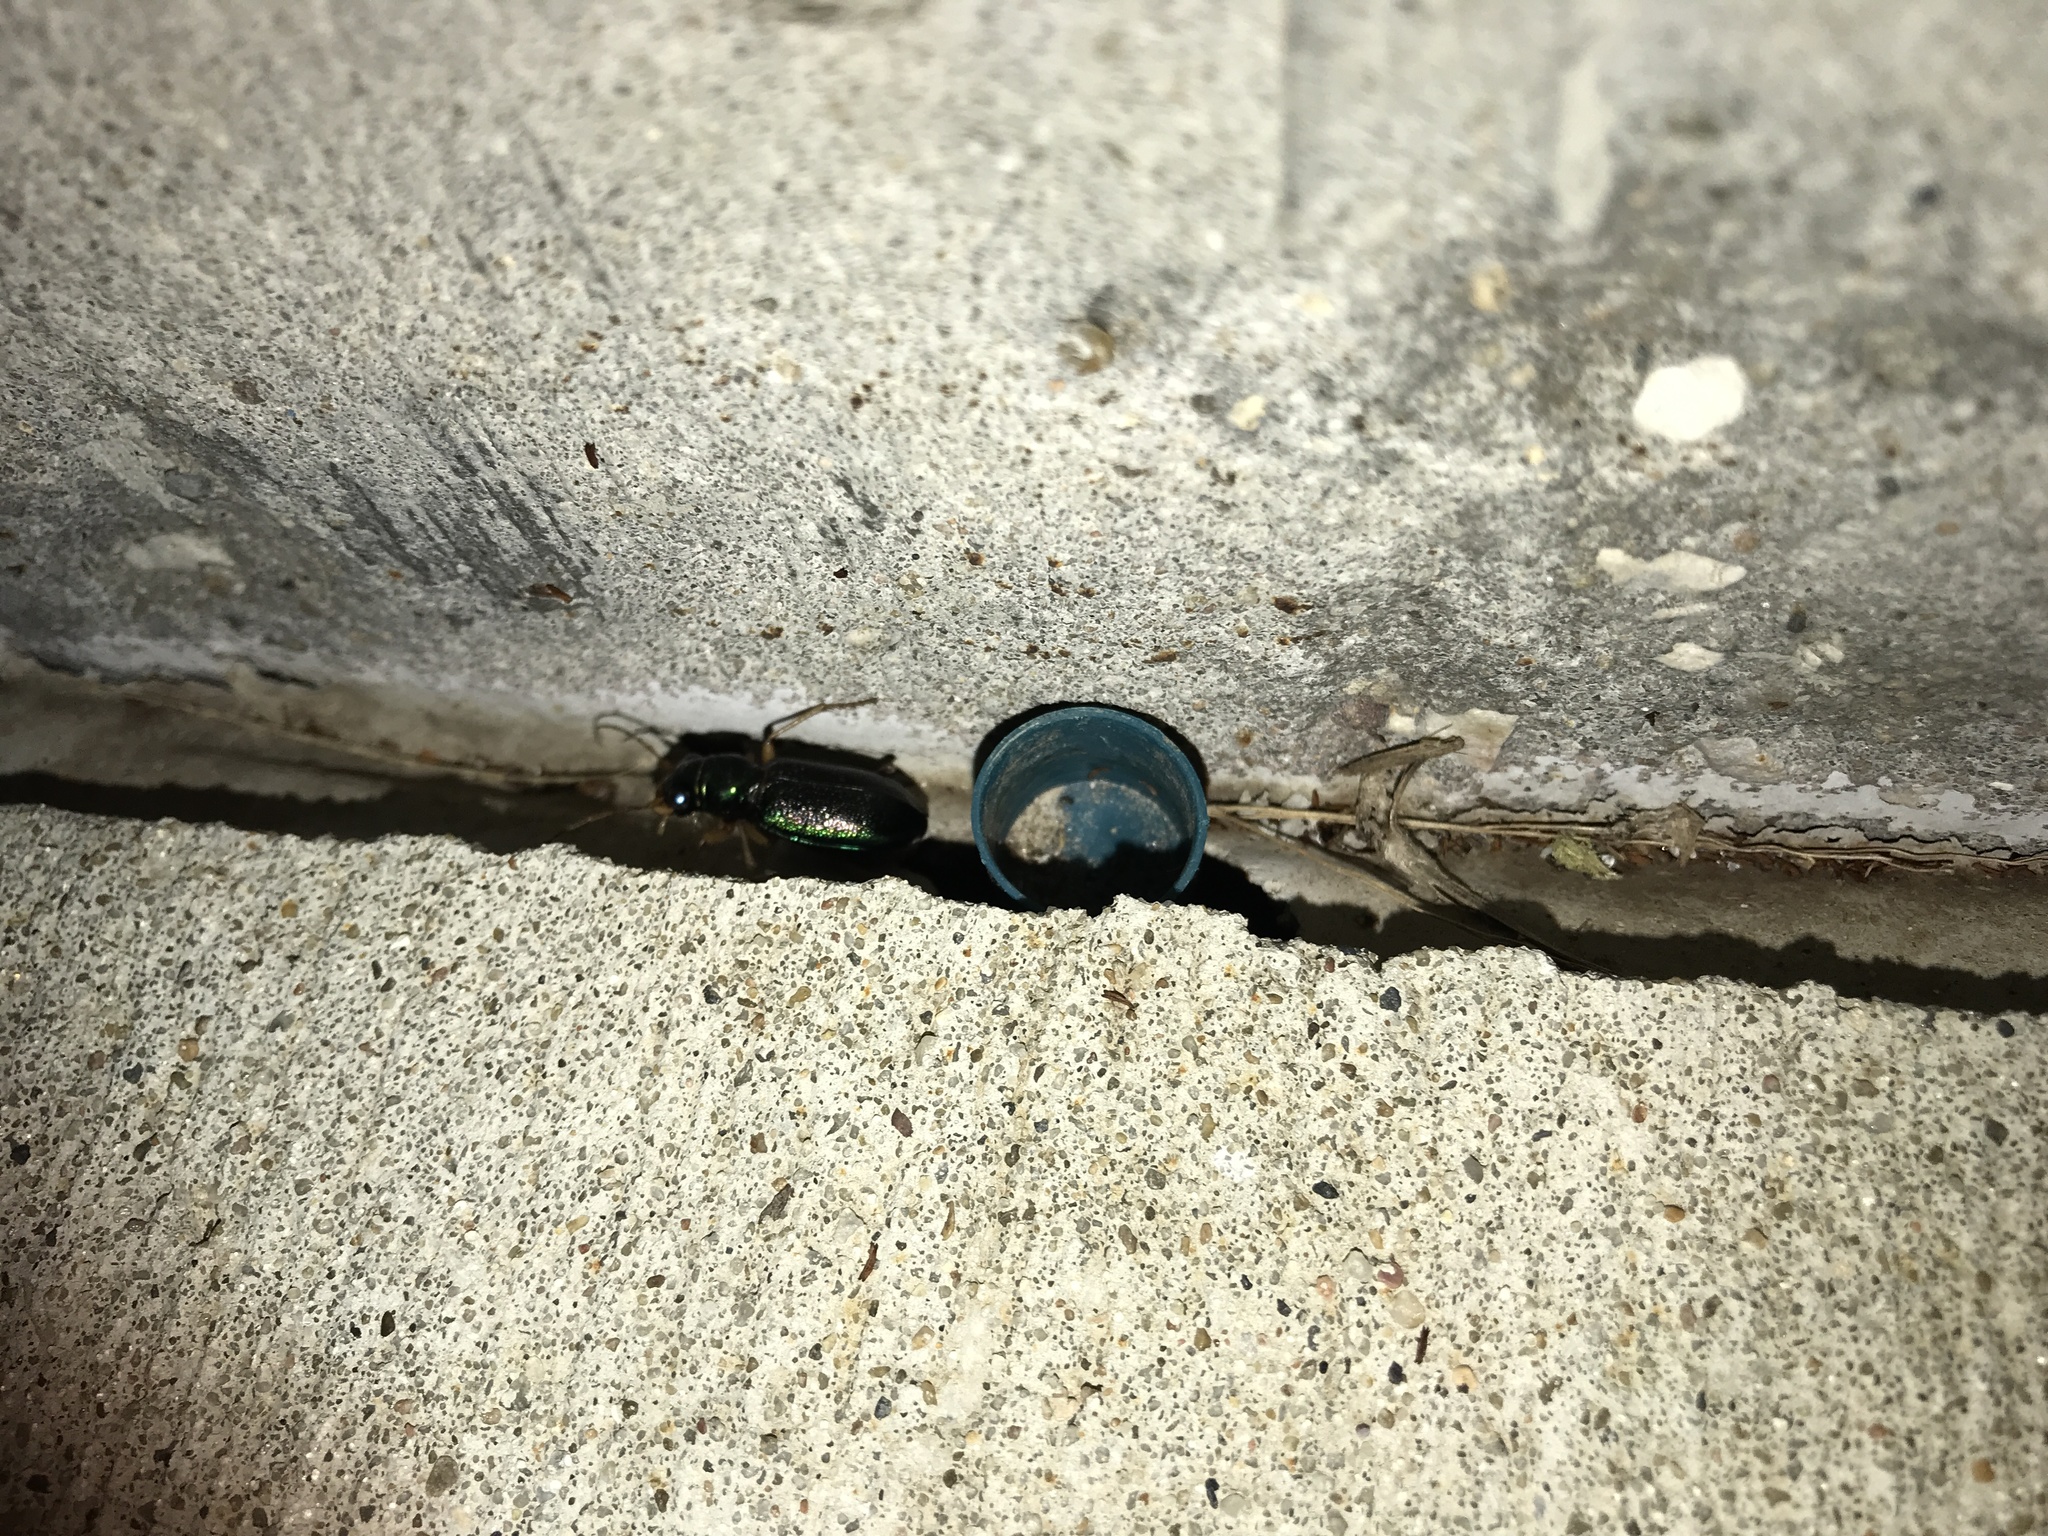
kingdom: Animalia
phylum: Arthropoda
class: Insecta
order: Coleoptera
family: Carabidae
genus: Tetracha
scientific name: Tetracha virginica
